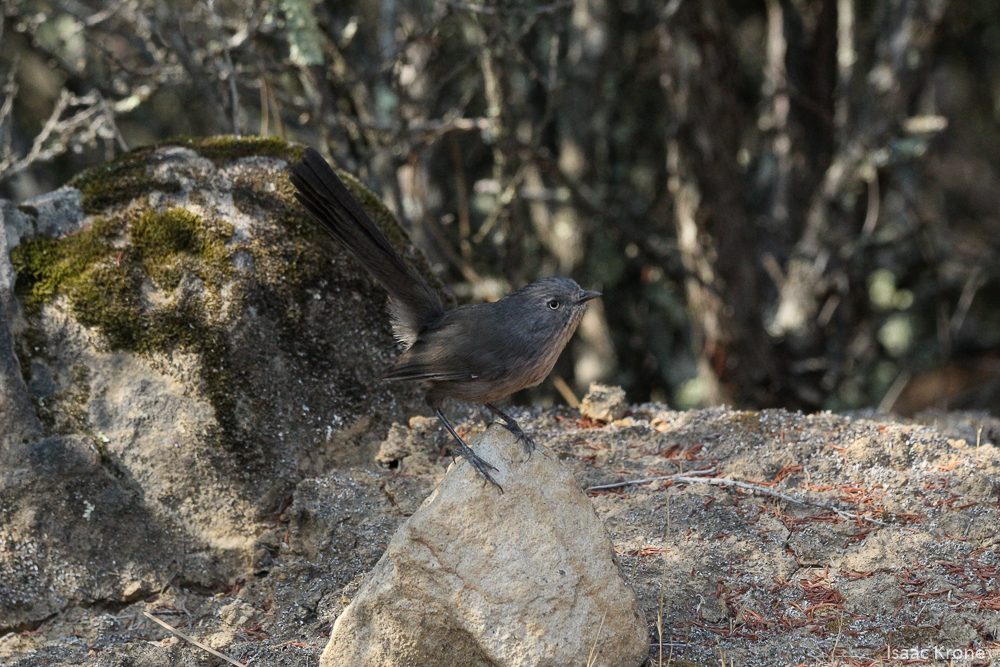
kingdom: Animalia
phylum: Chordata
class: Aves
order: Passeriformes
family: Sylviidae
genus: Chamaea
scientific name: Chamaea fasciata
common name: Wrentit
